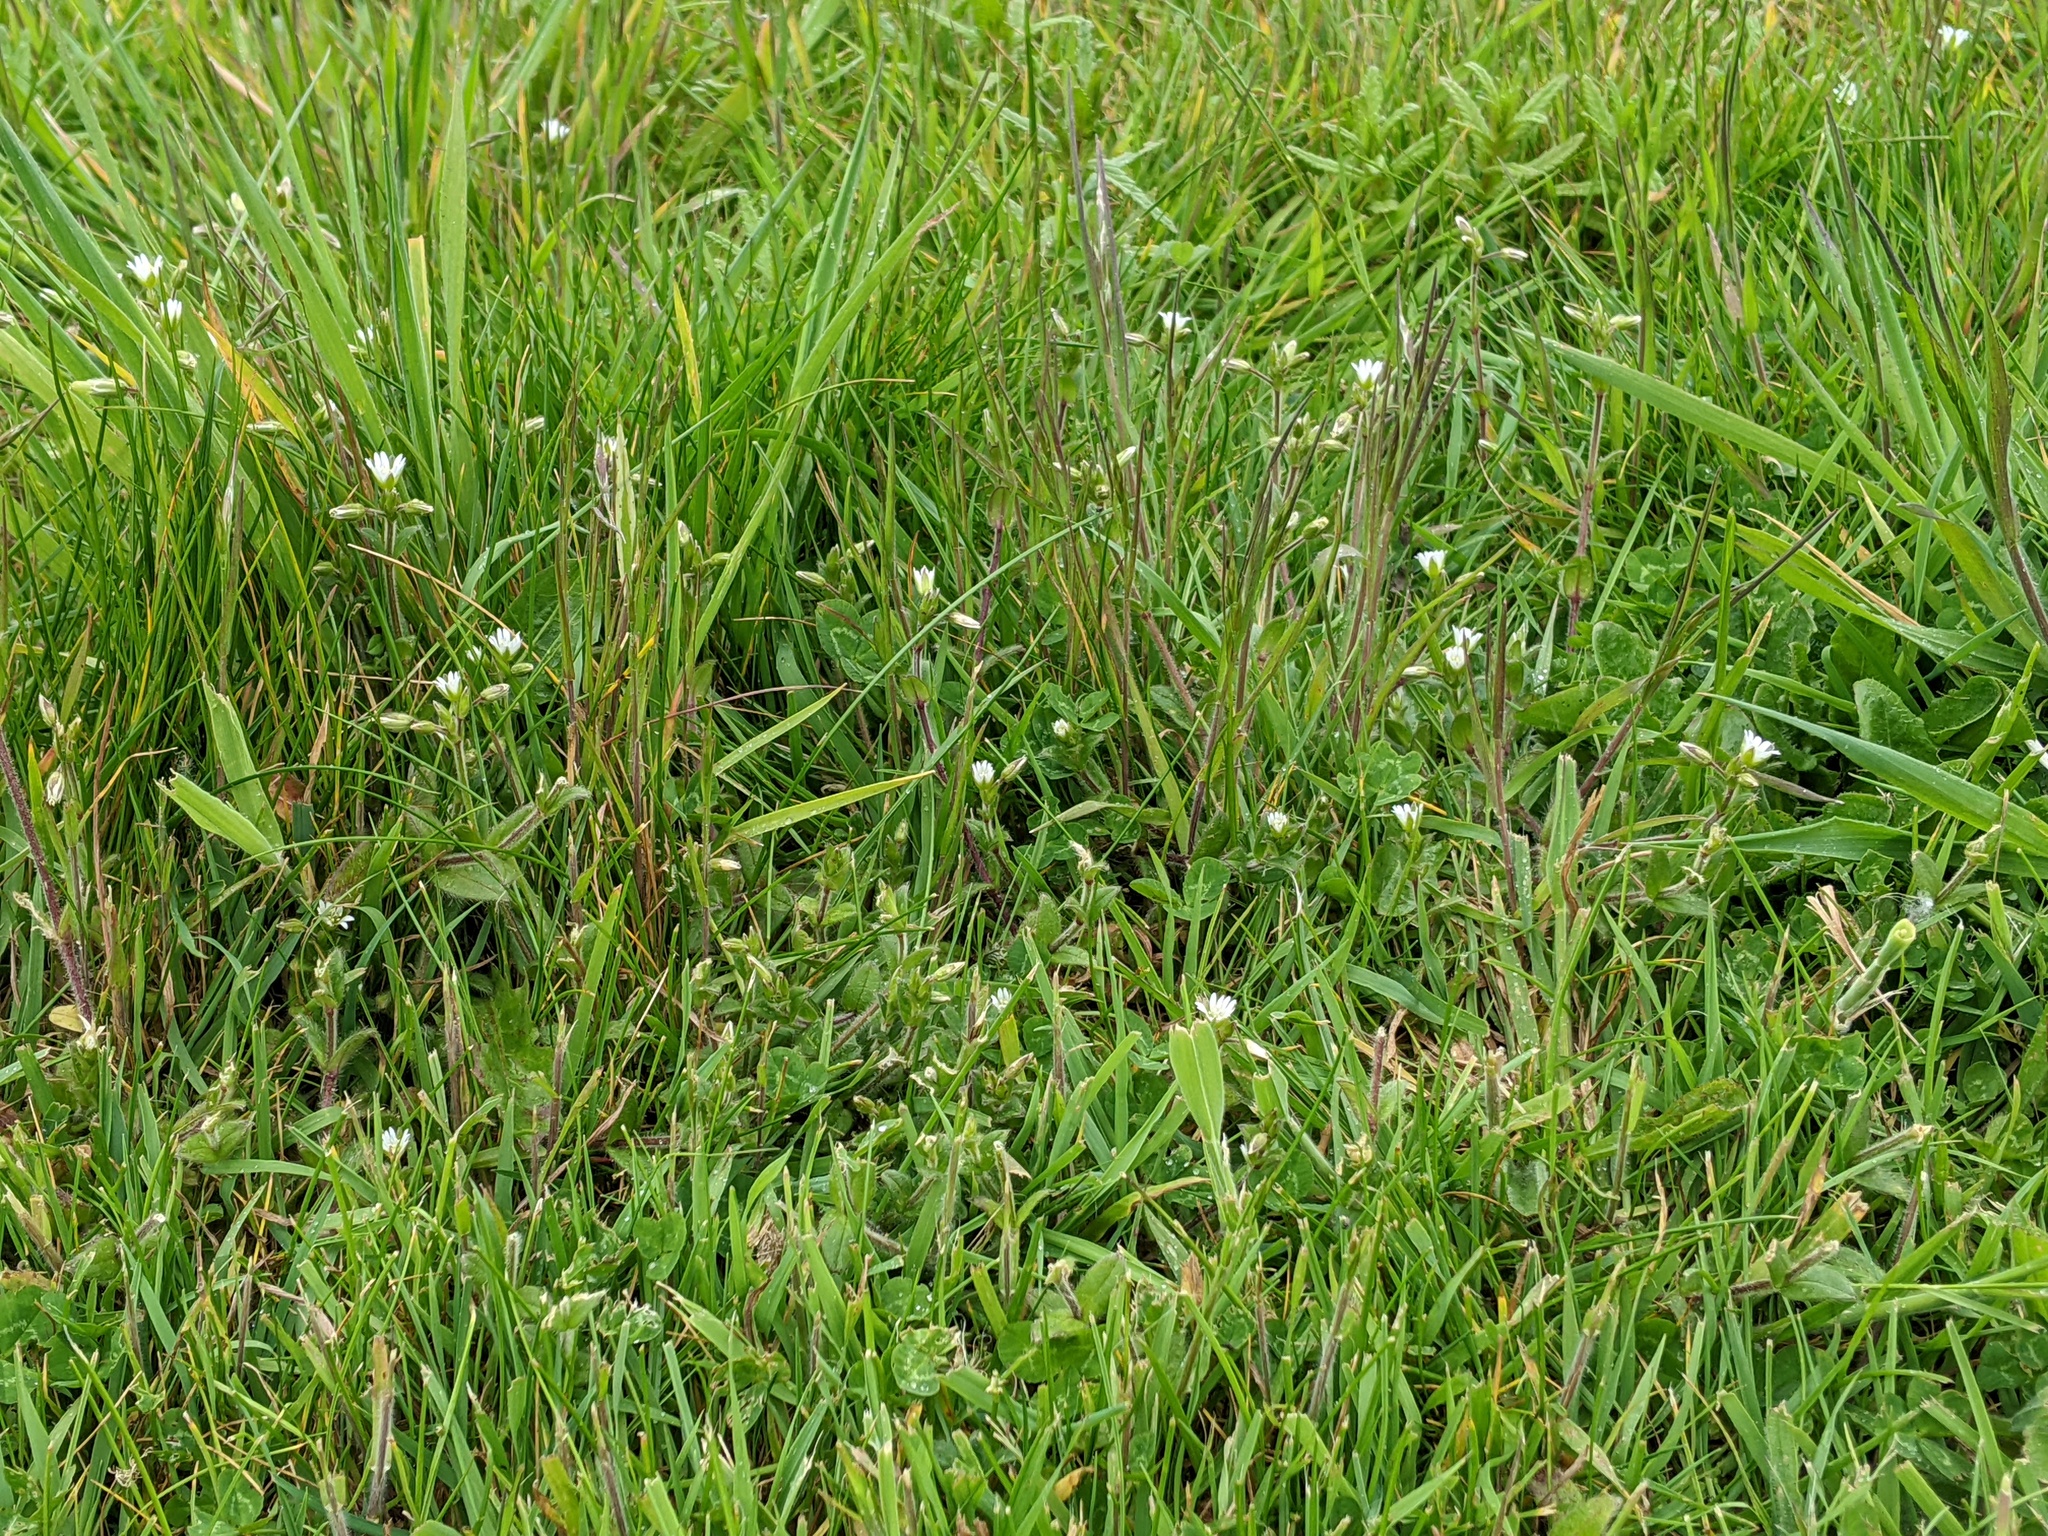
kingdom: Plantae
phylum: Tracheophyta
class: Magnoliopsida
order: Caryophyllales
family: Caryophyllaceae
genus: Cerastium
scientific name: Cerastium fontanum
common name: Common mouse-ear
